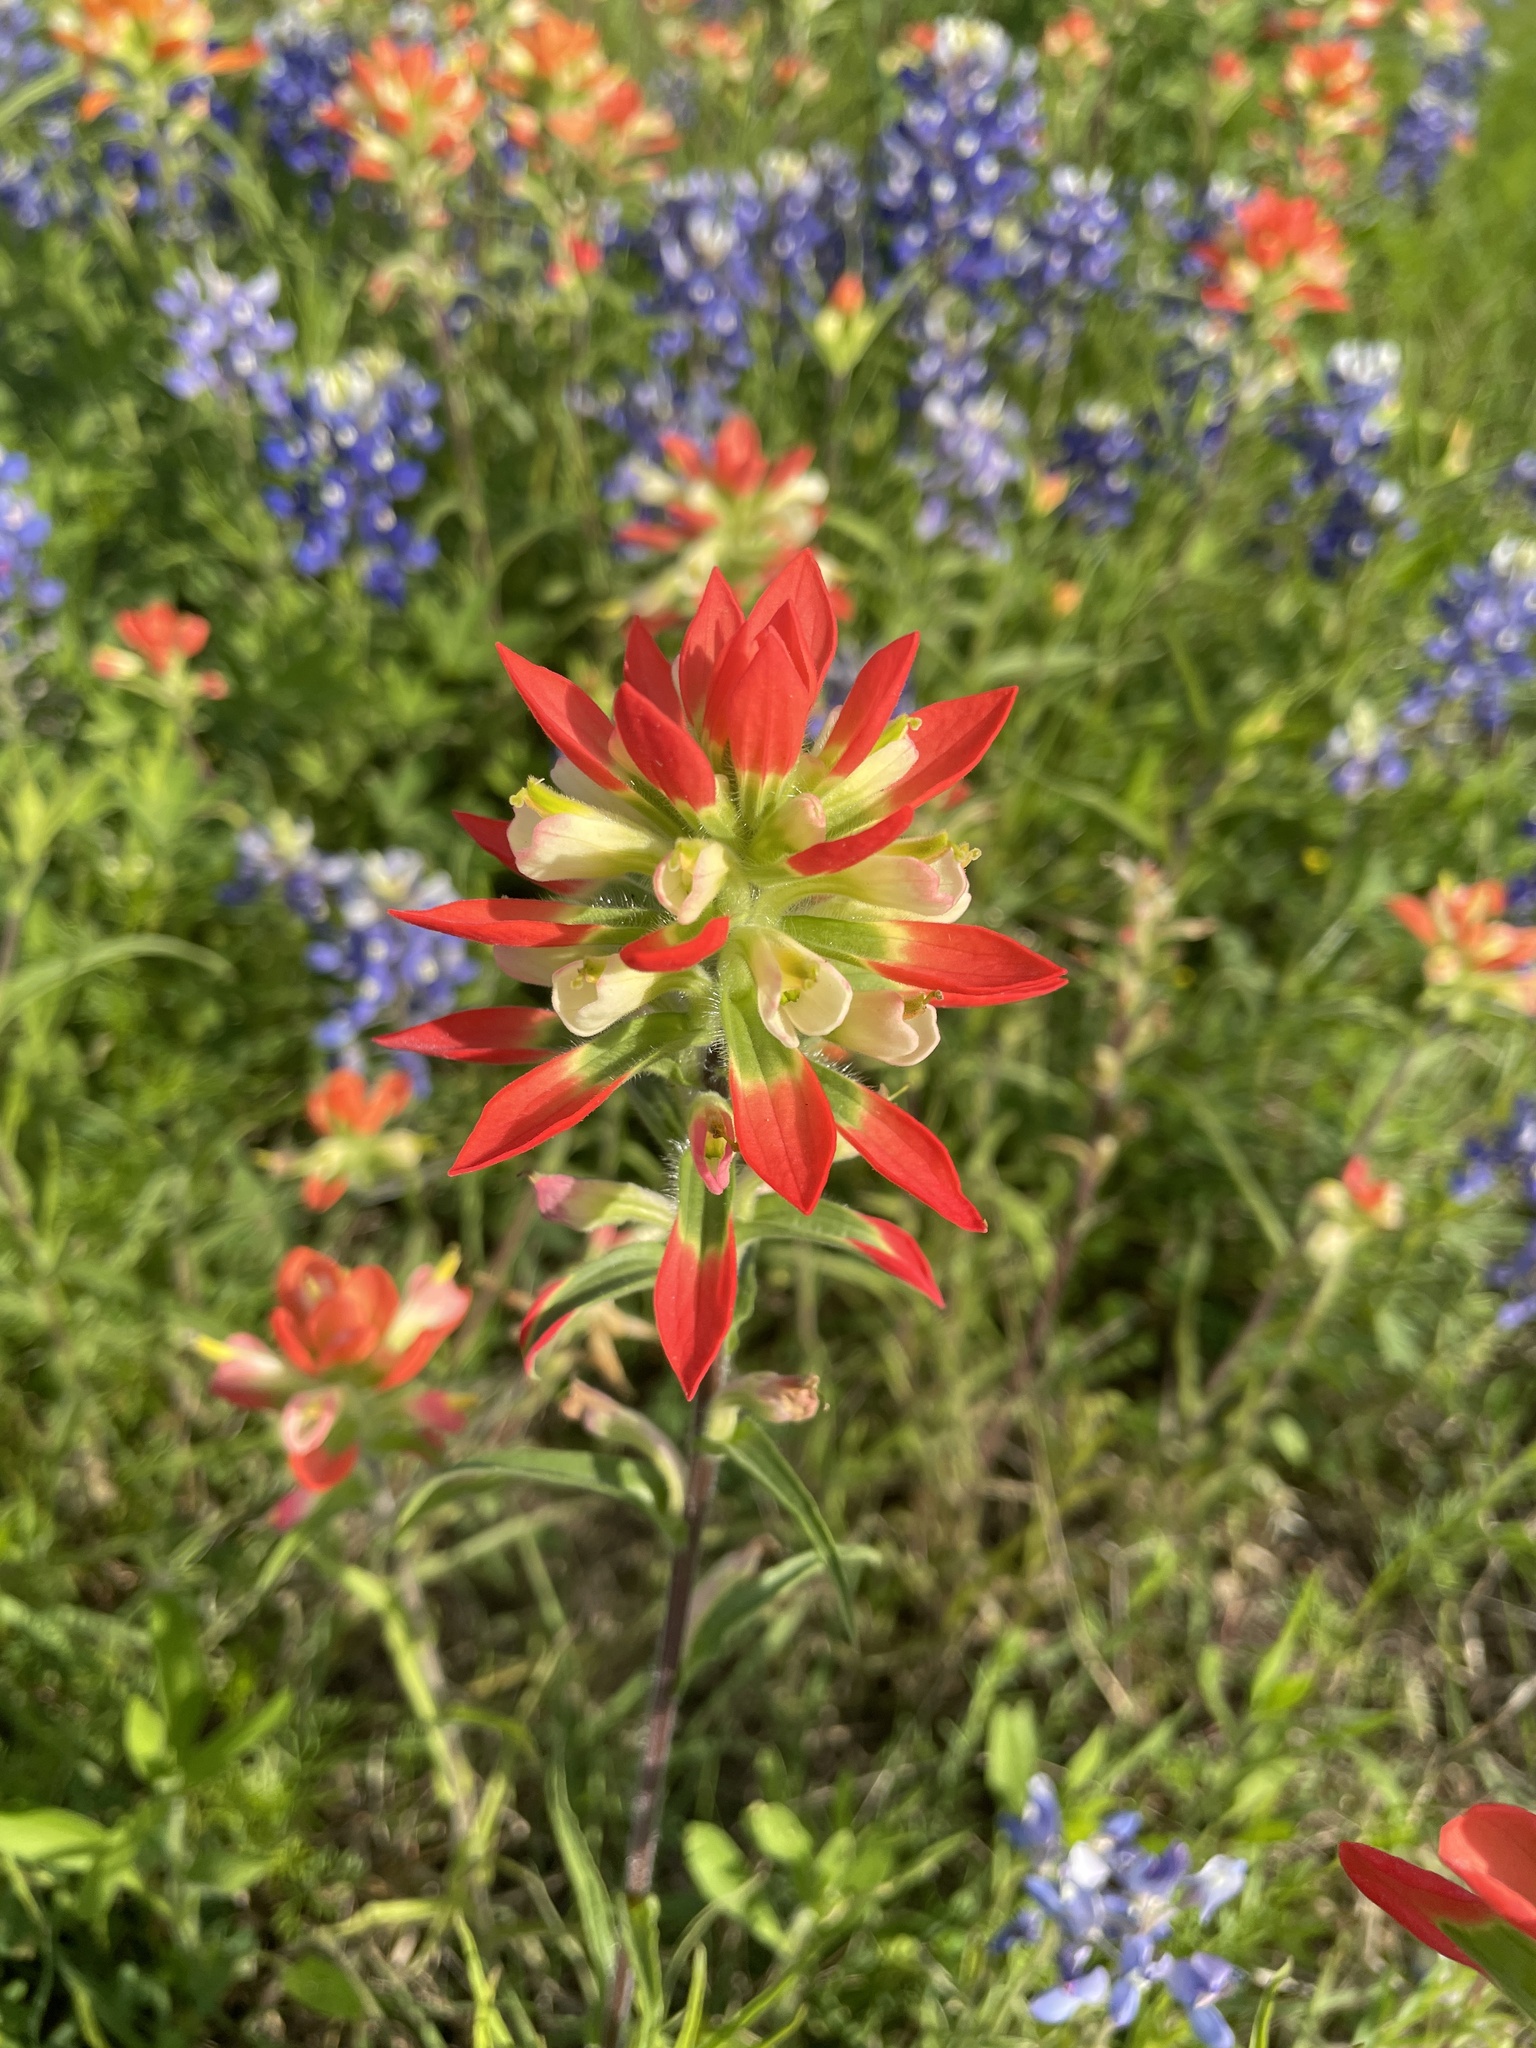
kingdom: Plantae
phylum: Tracheophyta
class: Magnoliopsida
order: Lamiales
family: Orobanchaceae
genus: Castilleja
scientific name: Castilleja indivisa
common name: Texas paintbrush
